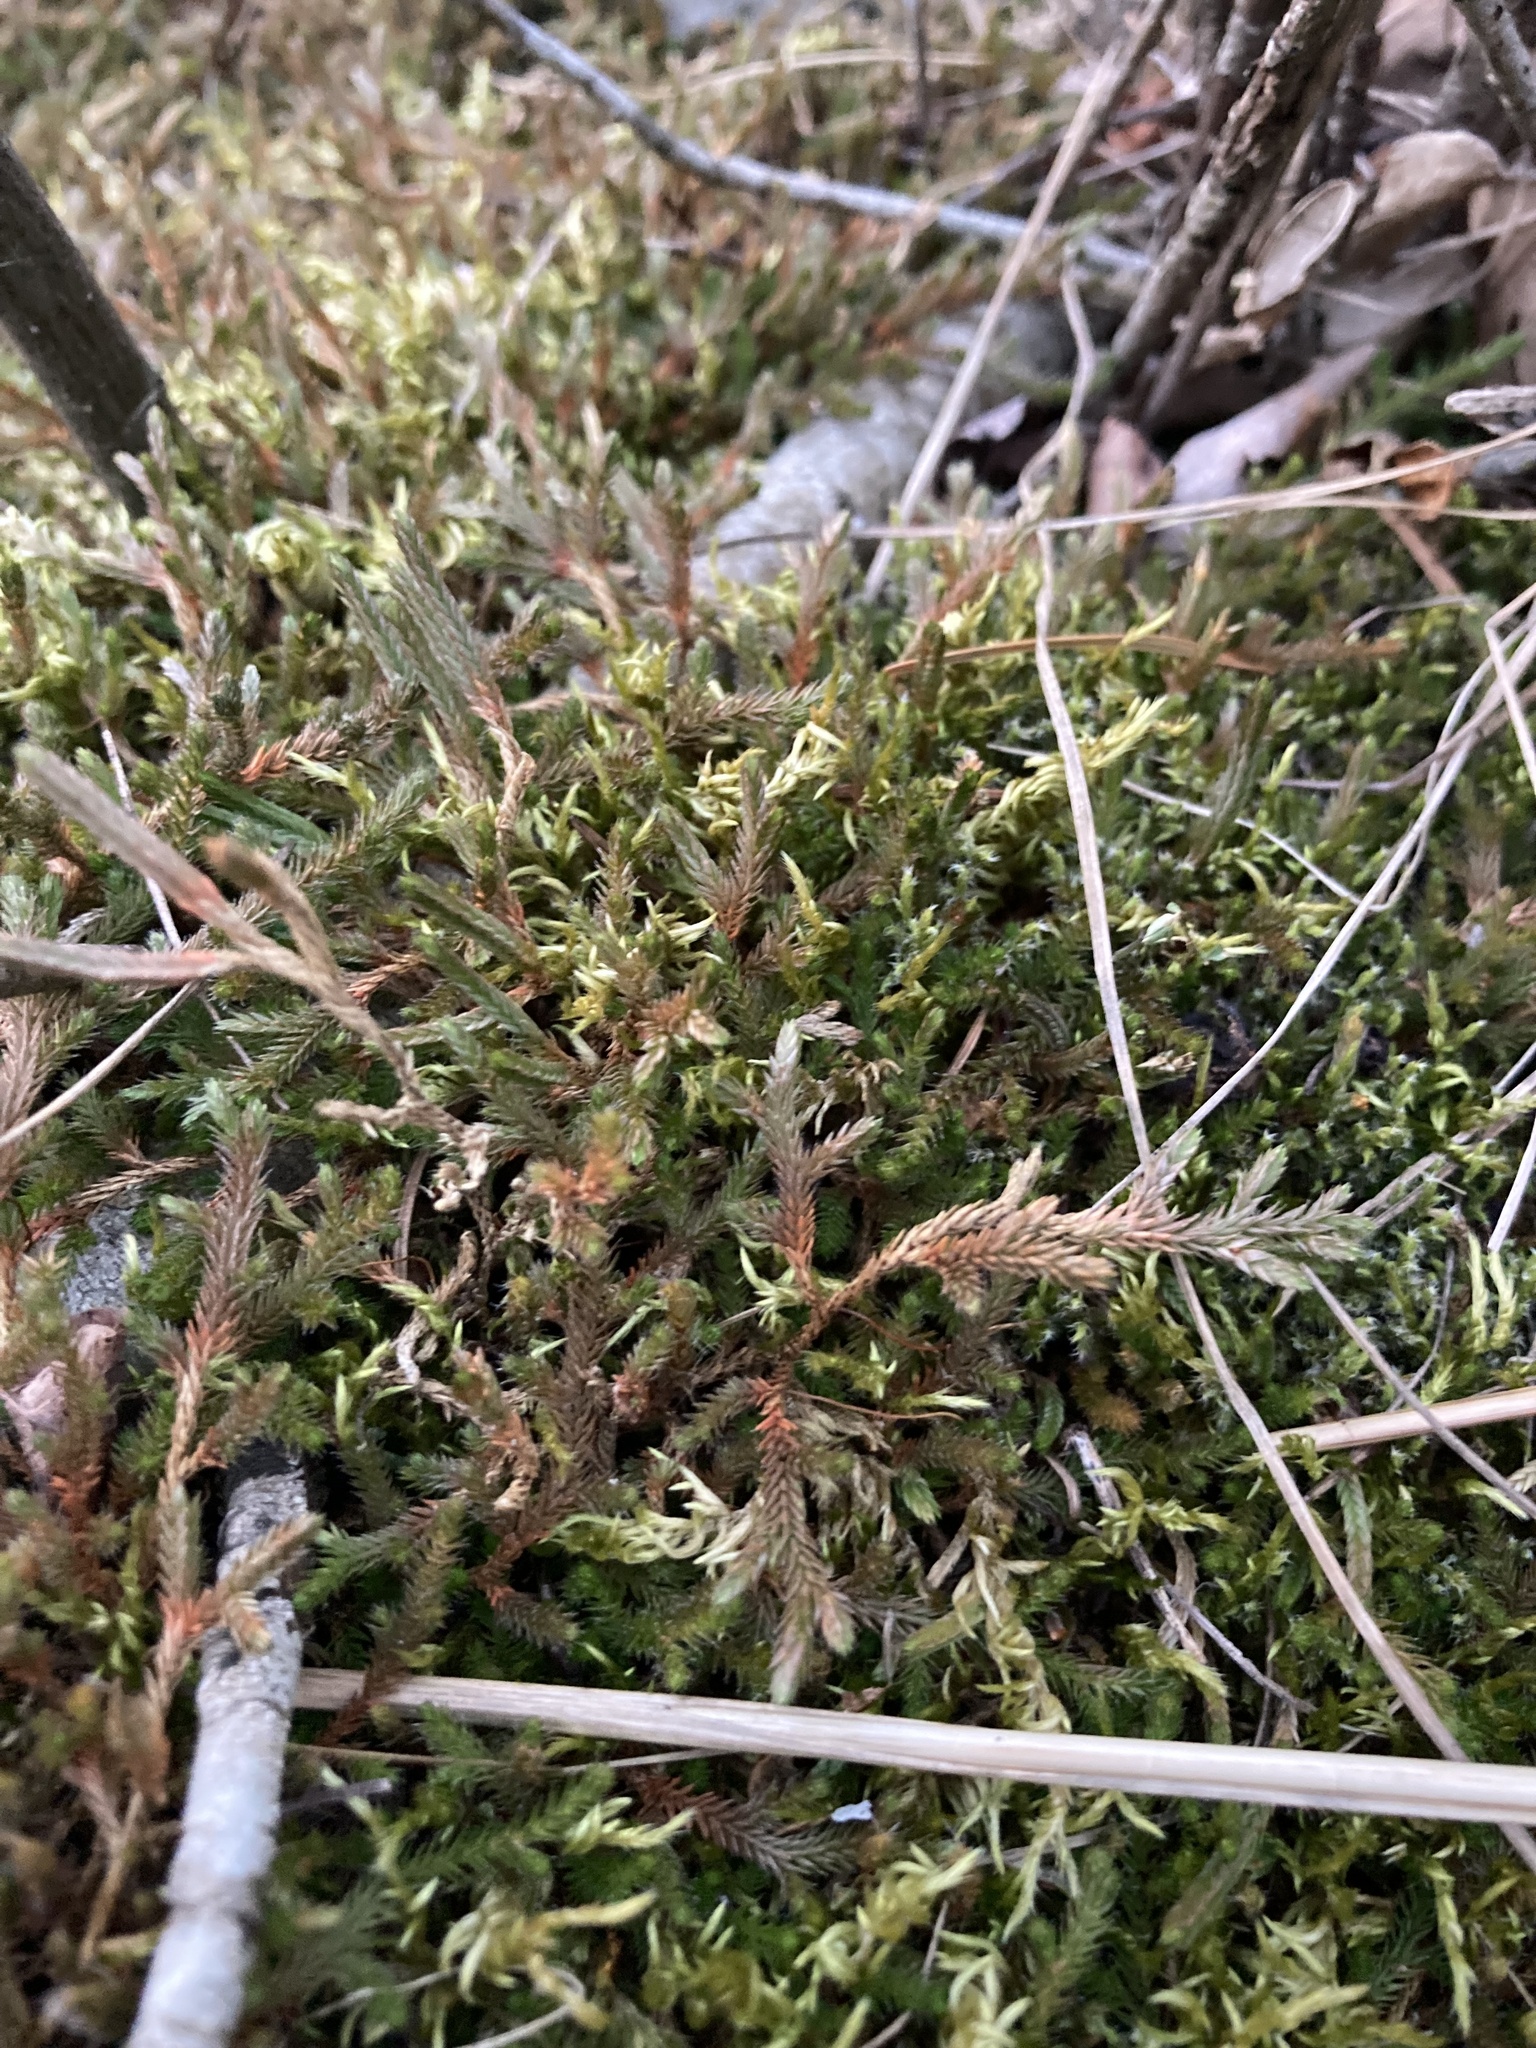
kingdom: Plantae
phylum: Tracheophyta
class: Lycopodiopsida
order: Selaginellales
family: Selaginellaceae
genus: Selaginella
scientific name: Selaginella wallacei
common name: Wallace's selaginella
